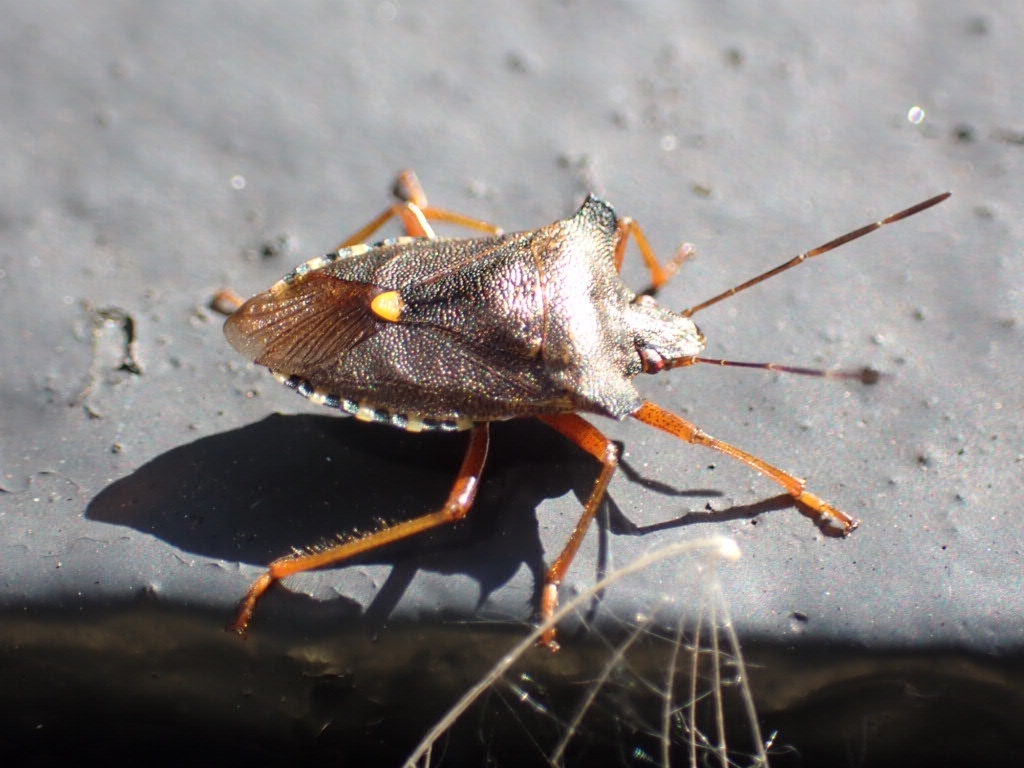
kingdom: Animalia
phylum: Arthropoda
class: Insecta
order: Hemiptera
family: Pentatomidae
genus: Pentatoma
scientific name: Pentatoma rufipes
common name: Forest bug
